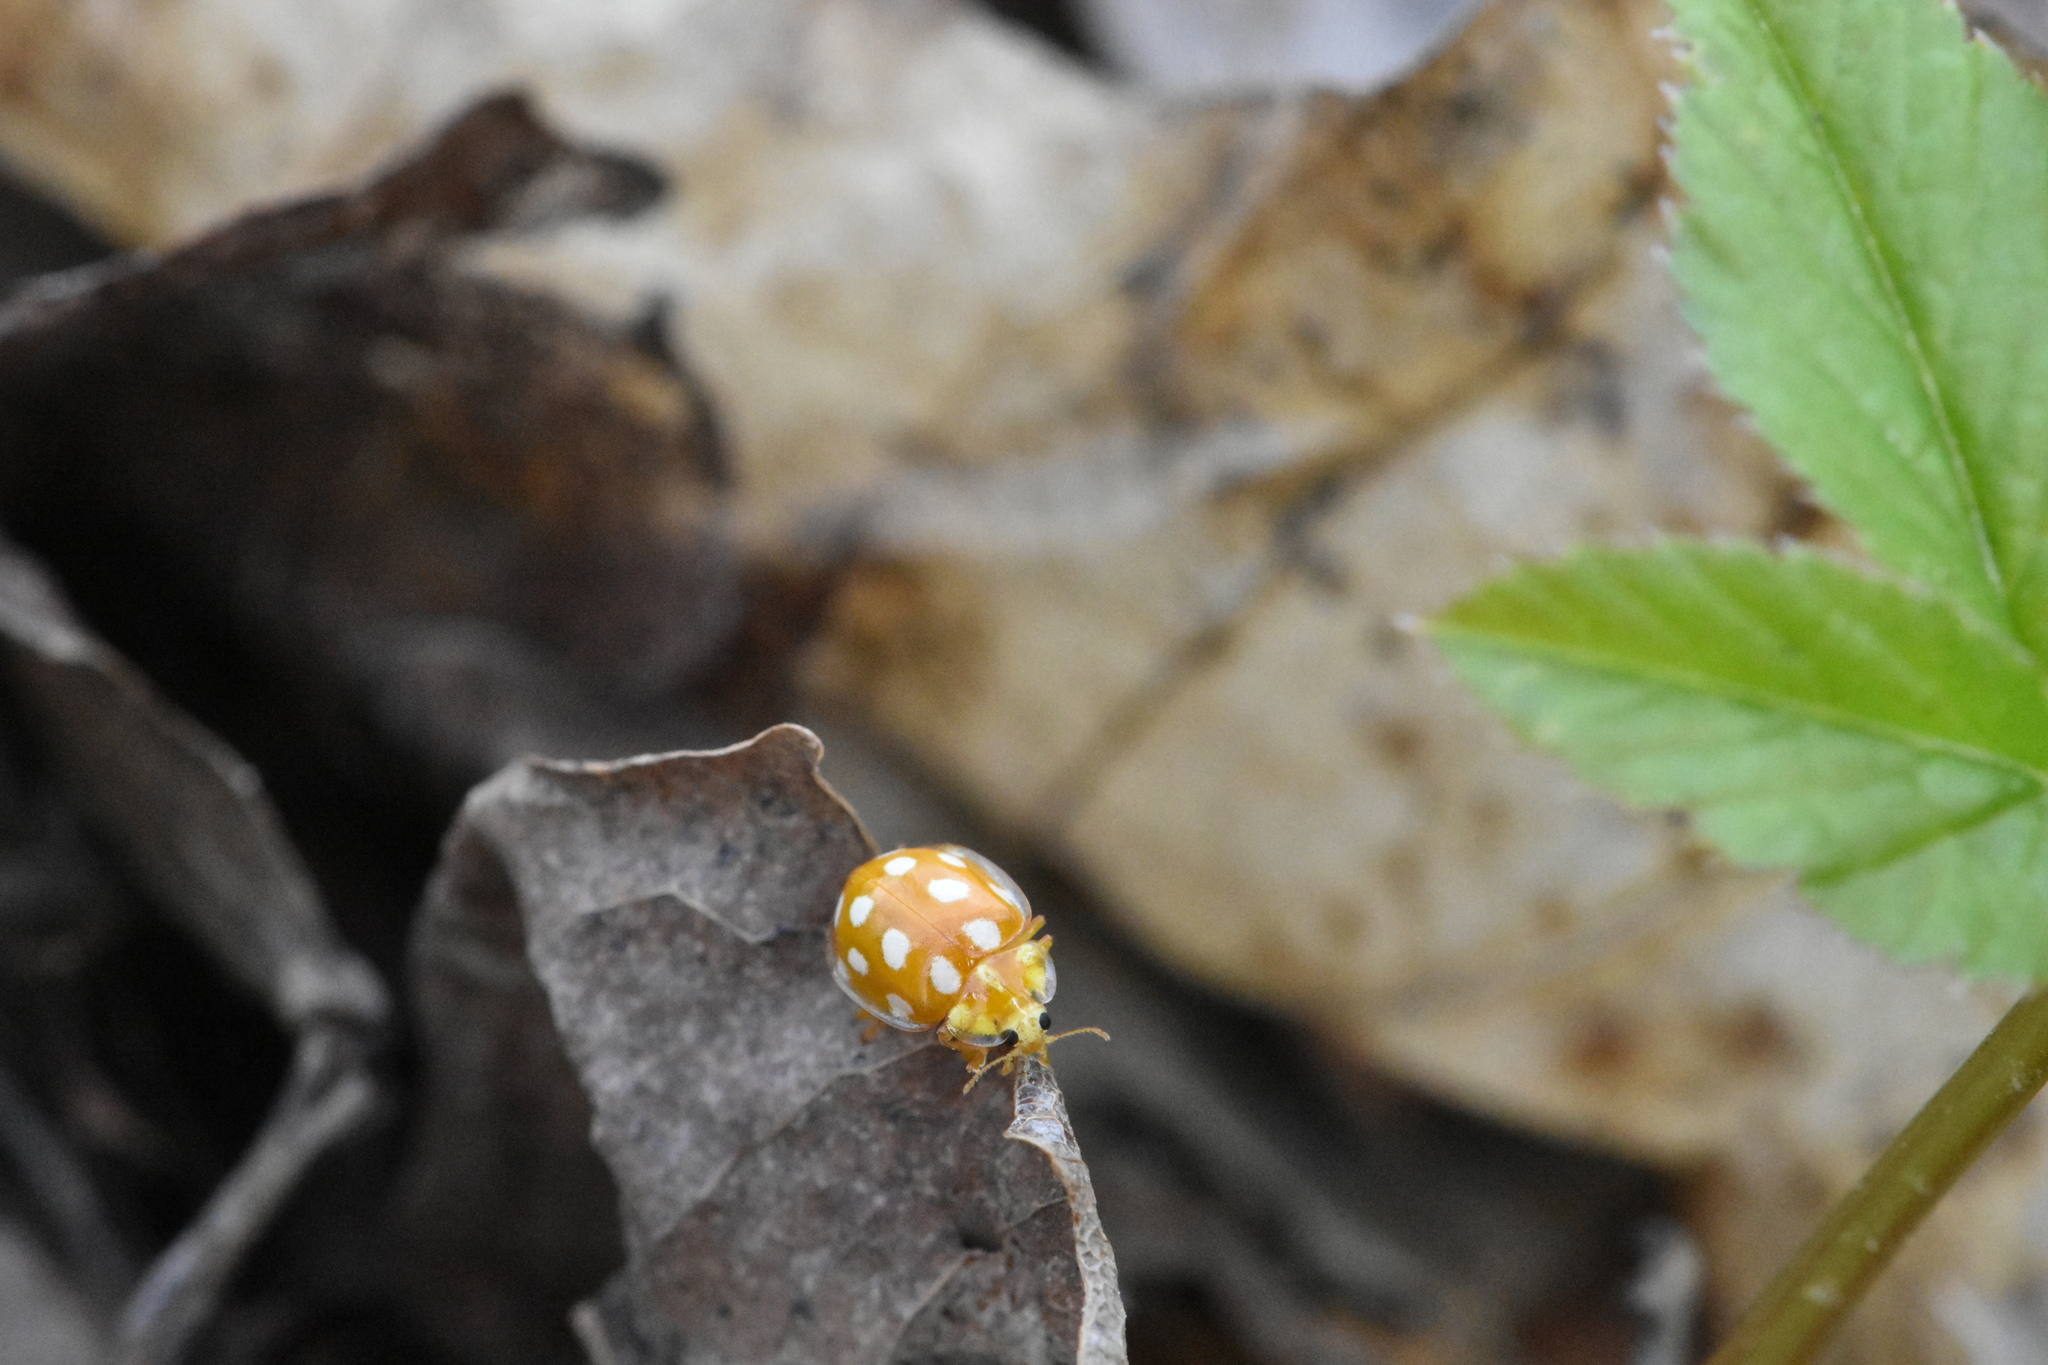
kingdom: Animalia
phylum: Arthropoda
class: Insecta
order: Coleoptera
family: Coccinellidae
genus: Halyzia
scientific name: Halyzia sedecimguttata
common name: Orange ladybird
